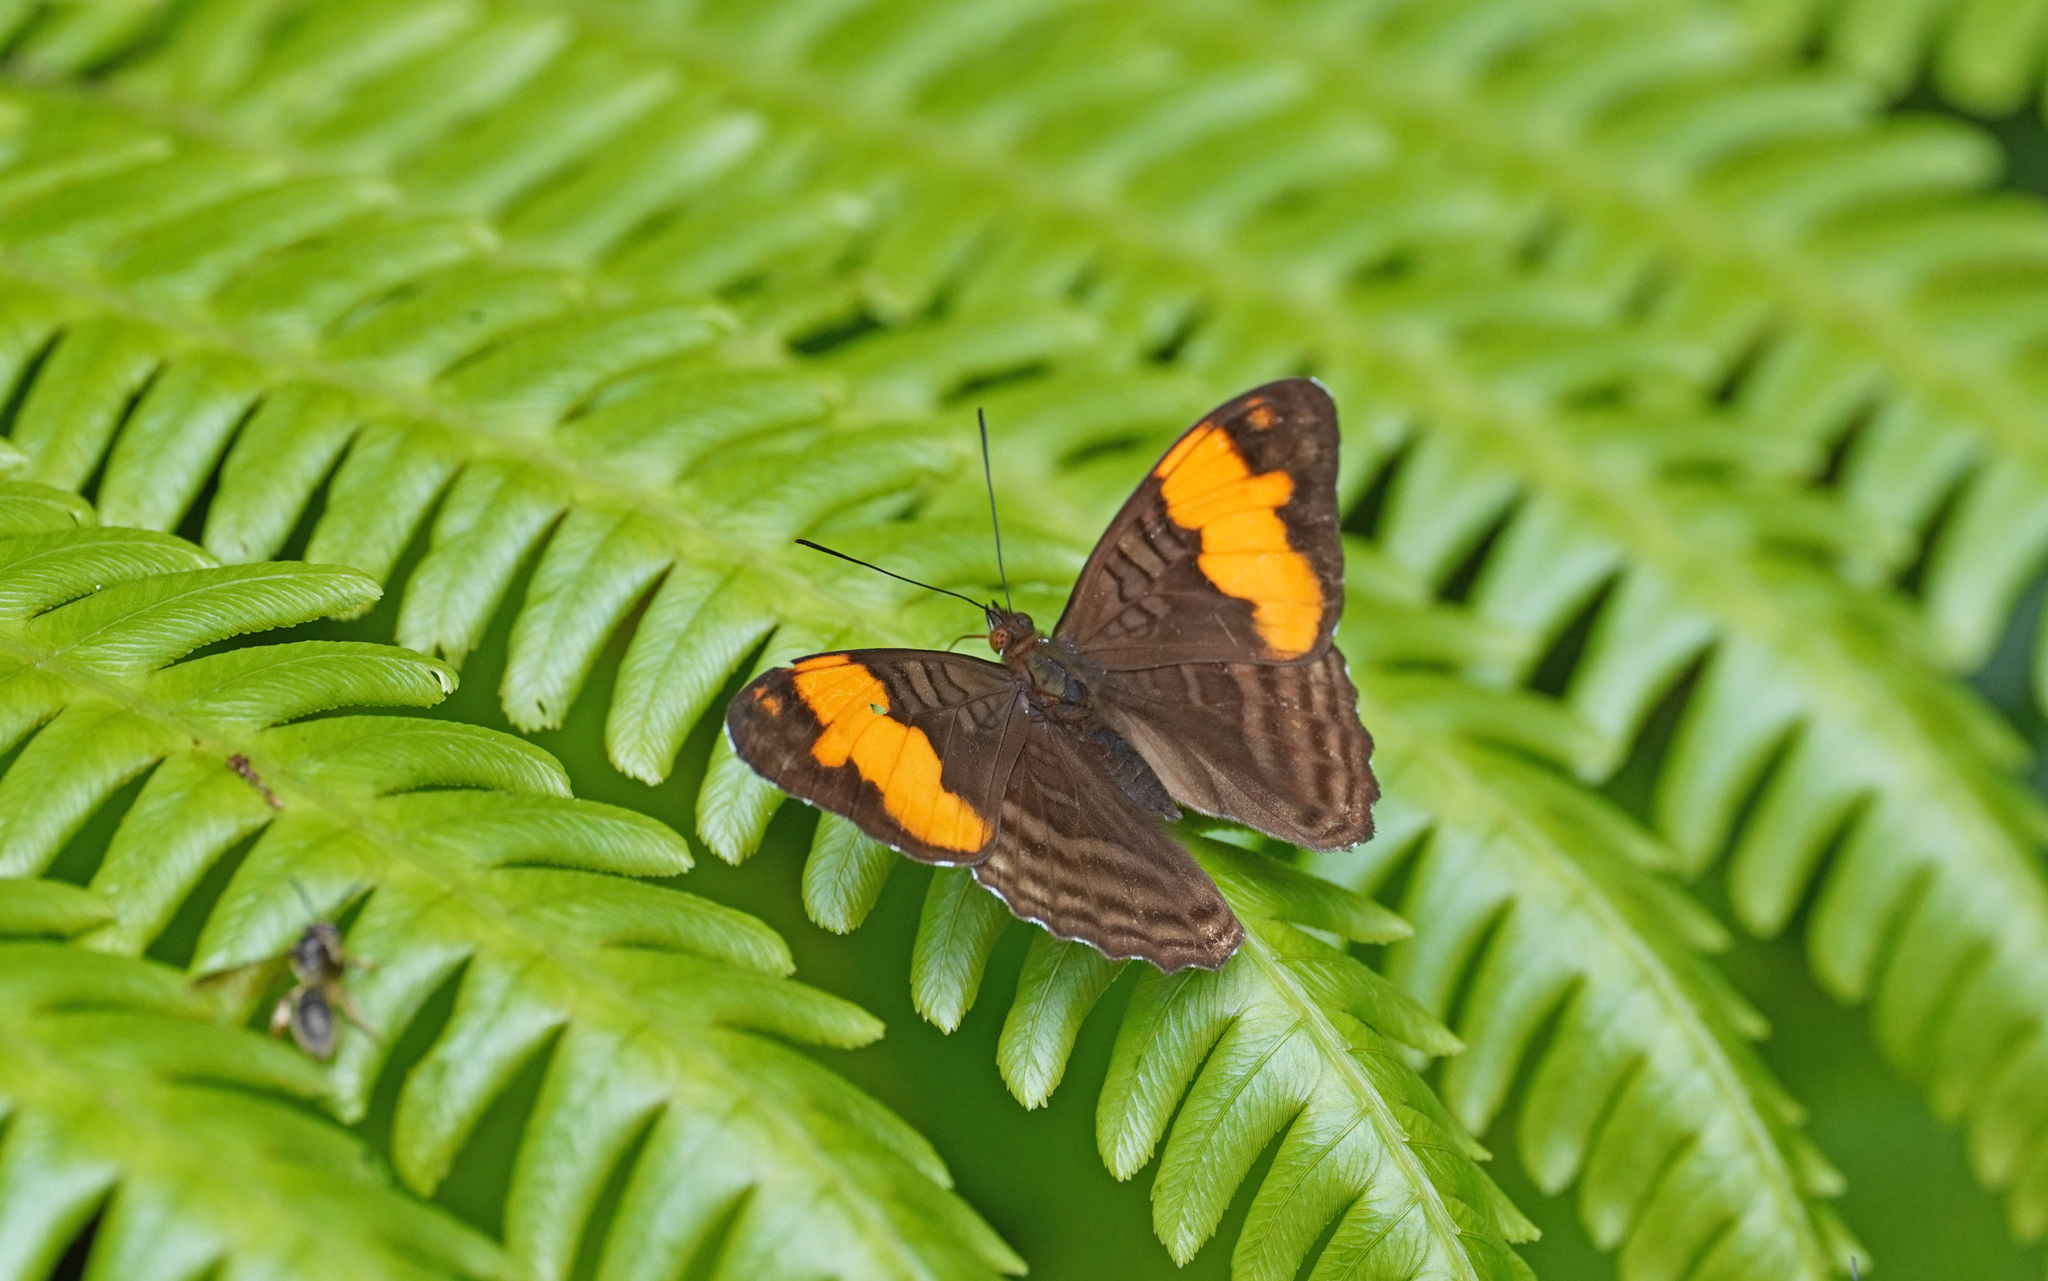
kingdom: Animalia
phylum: Arthropoda
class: Insecta
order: Lepidoptera
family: Nymphalidae
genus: Limenitis
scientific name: Limenitis saundersii
